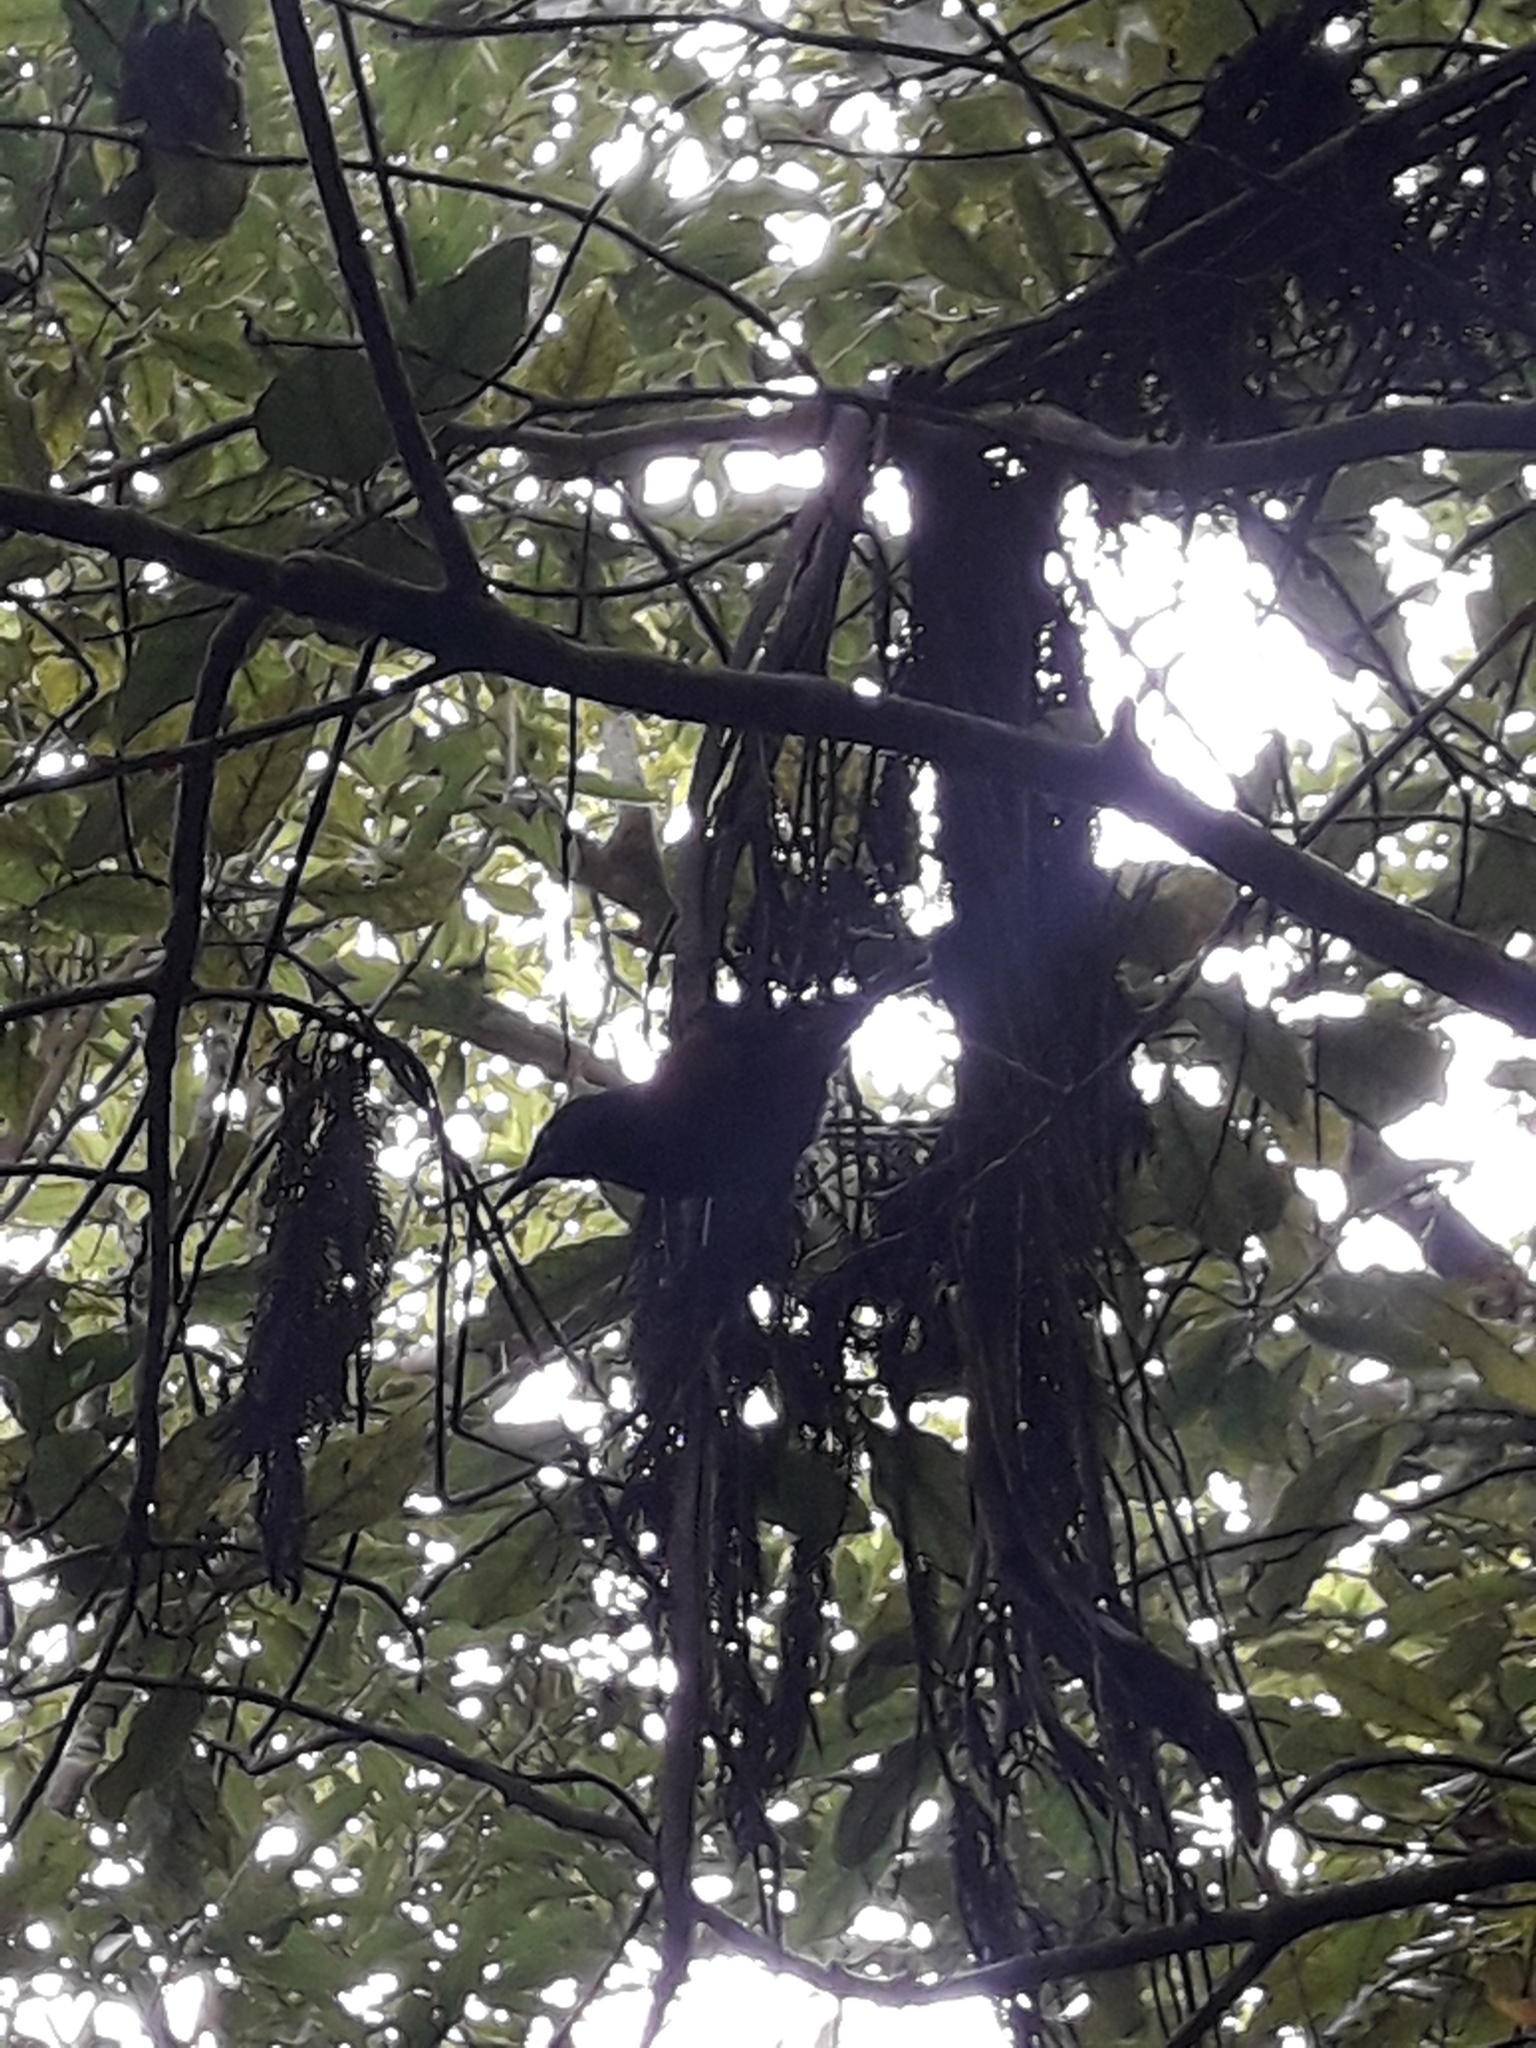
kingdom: Animalia
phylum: Chordata
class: Aves
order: Passeriformes
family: Callaeatidae
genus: Philesturnus
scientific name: Philesturnus carunculatus
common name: South island saddleback
